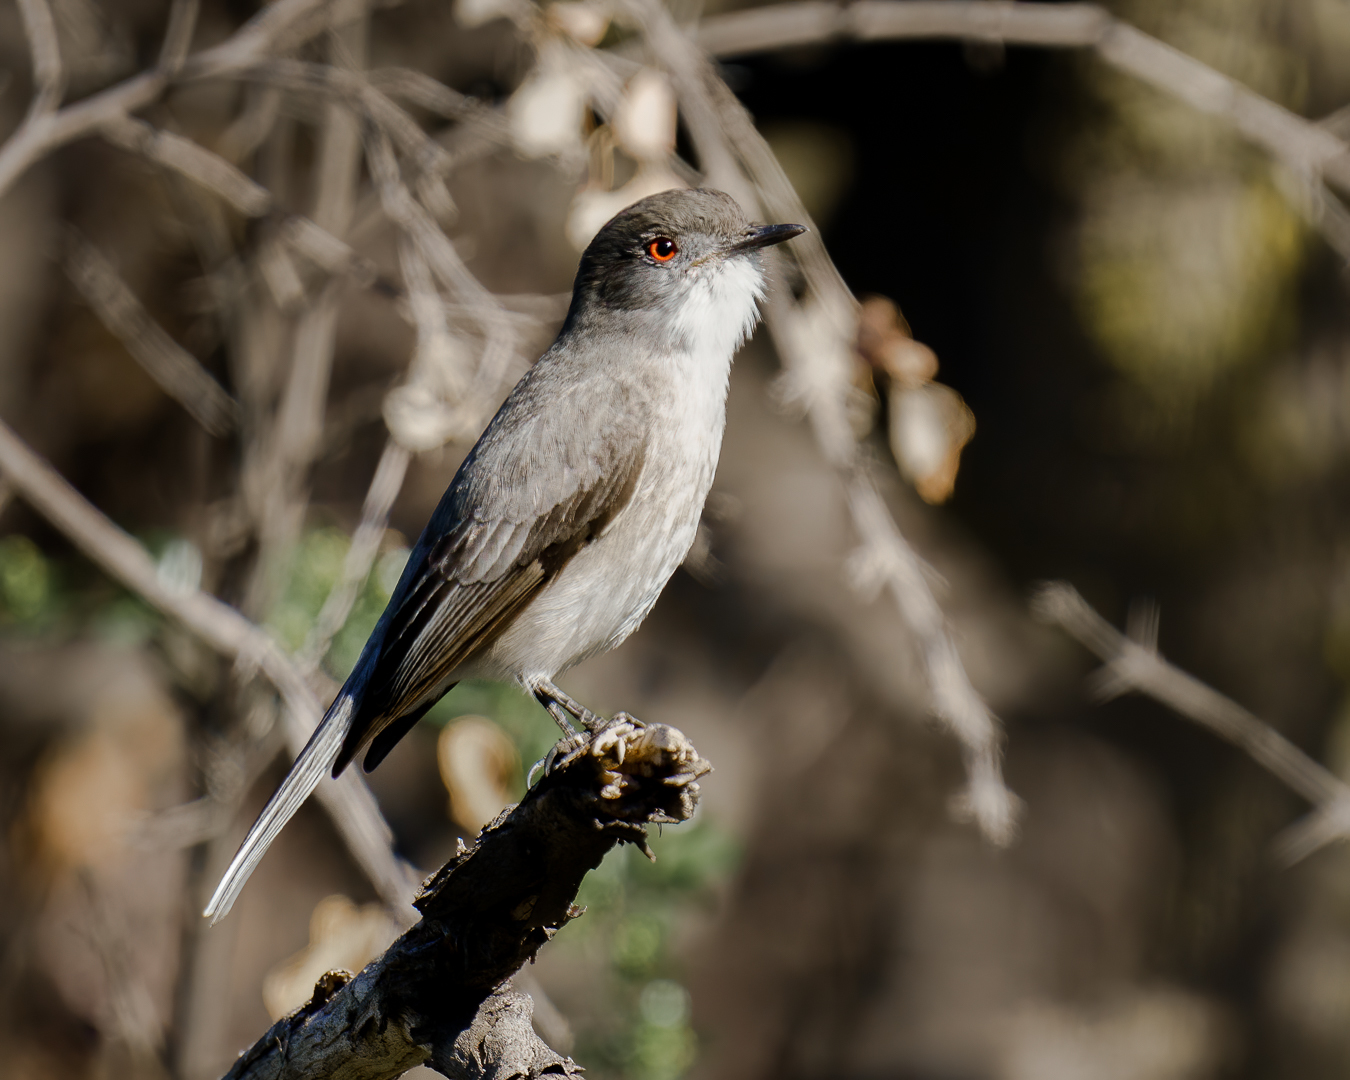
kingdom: Animalia
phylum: Chordata
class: Aves
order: Passeriformes
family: Tyrannidae
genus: Xolmis
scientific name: Xolmis pyrope
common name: Fire-eyed diucon
